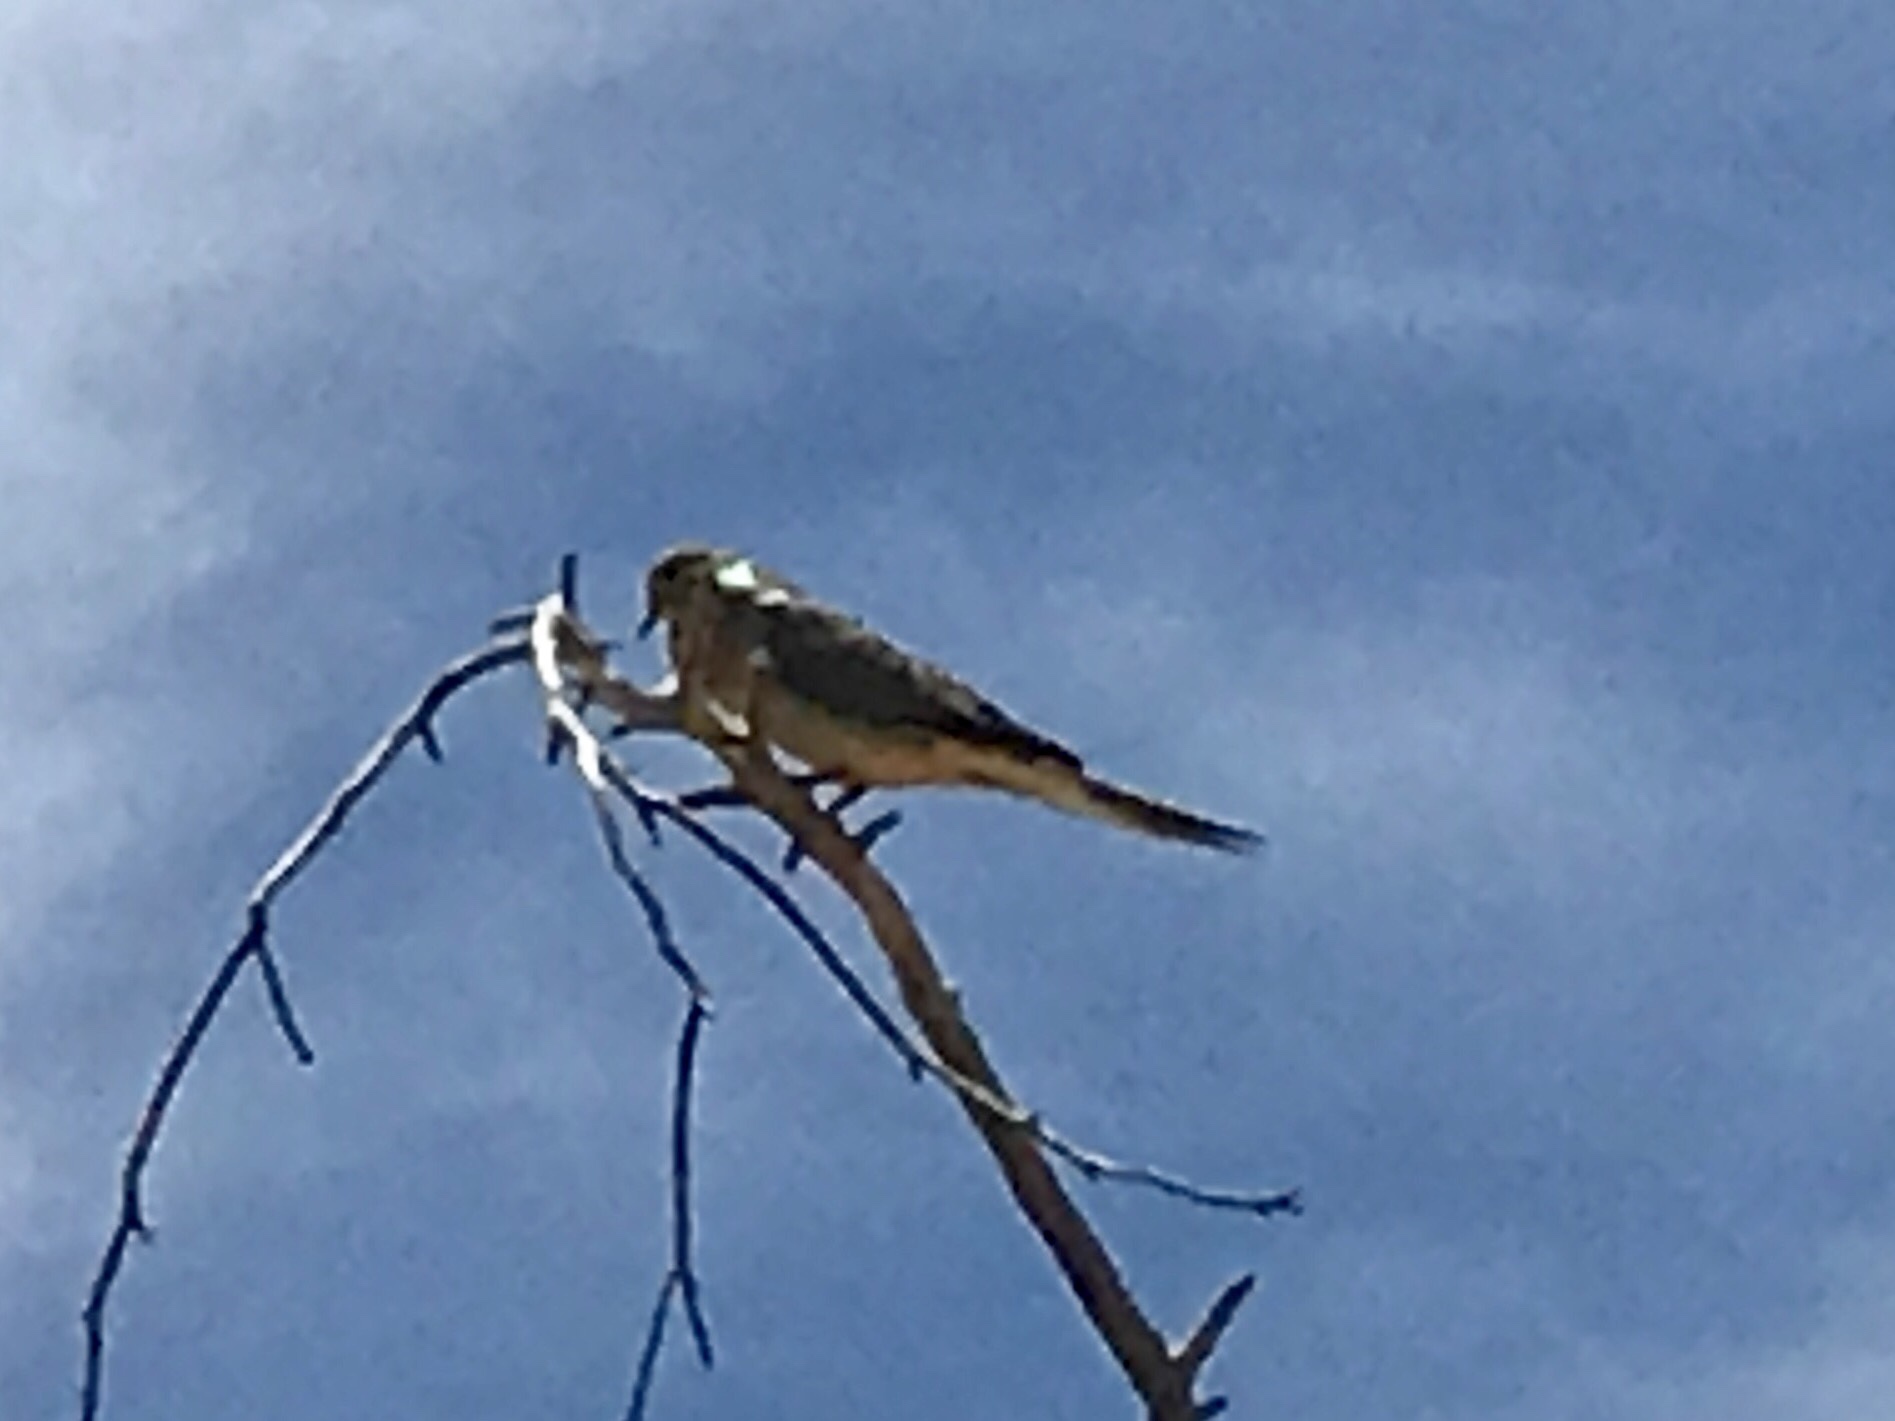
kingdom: Animalia
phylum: Chordata
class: Aves
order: Columbiformes
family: Columbidae
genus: Zenaida
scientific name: Zenaida macroura
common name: Mourning dove
